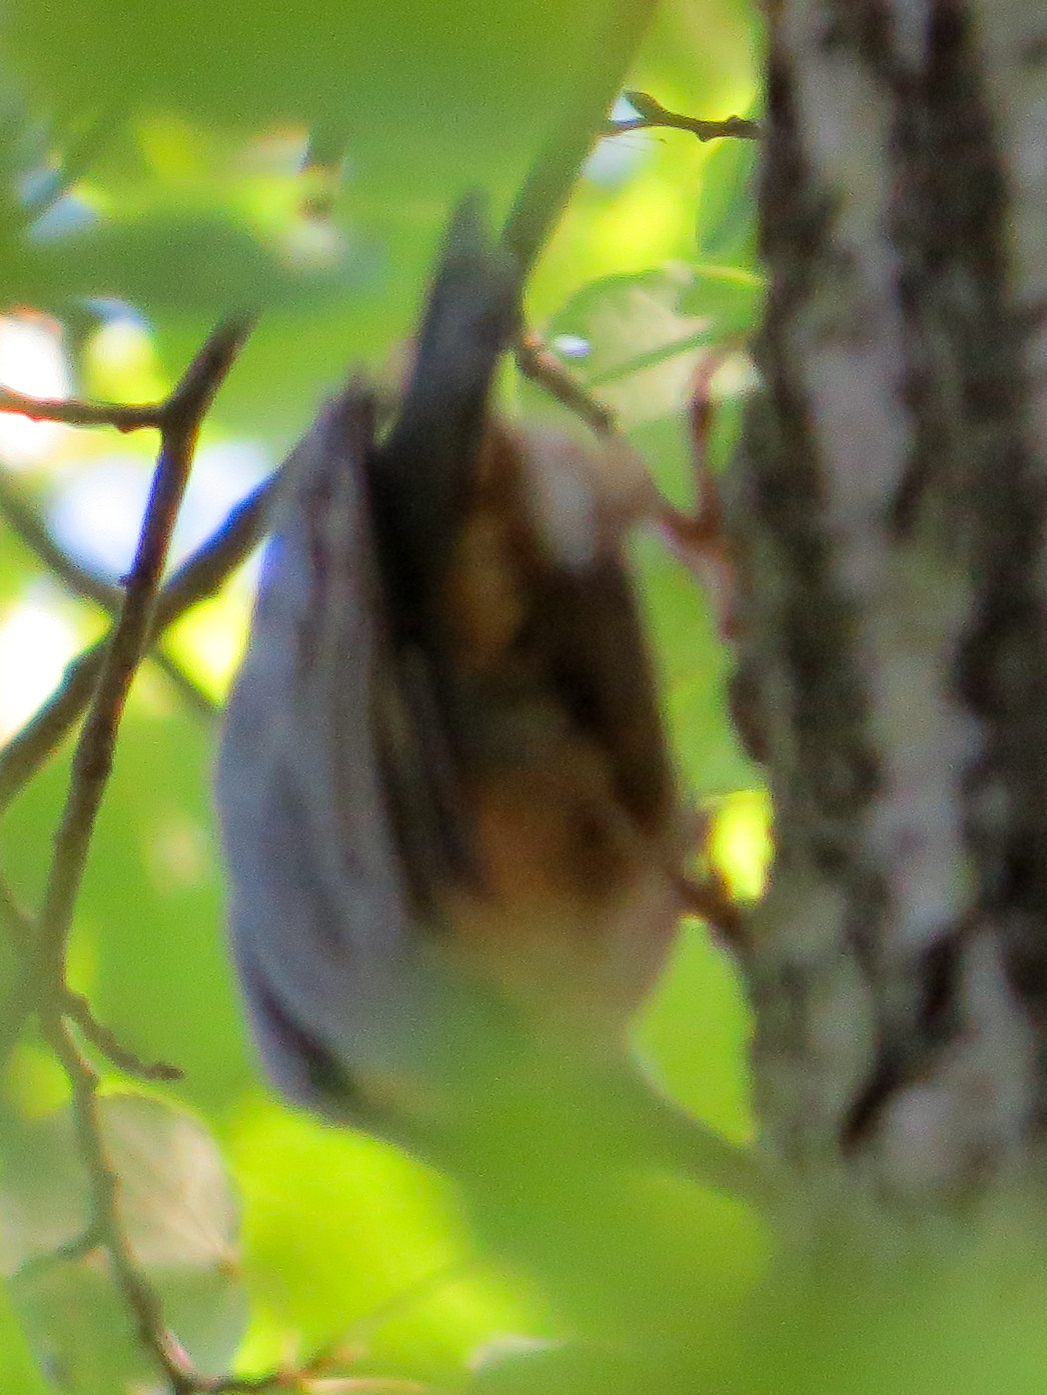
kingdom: Animalia
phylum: Chordata
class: Aves
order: Passeriformes
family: Sittidae
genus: Sitta
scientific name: Sitta europaea
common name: Eurasian nuthatch
